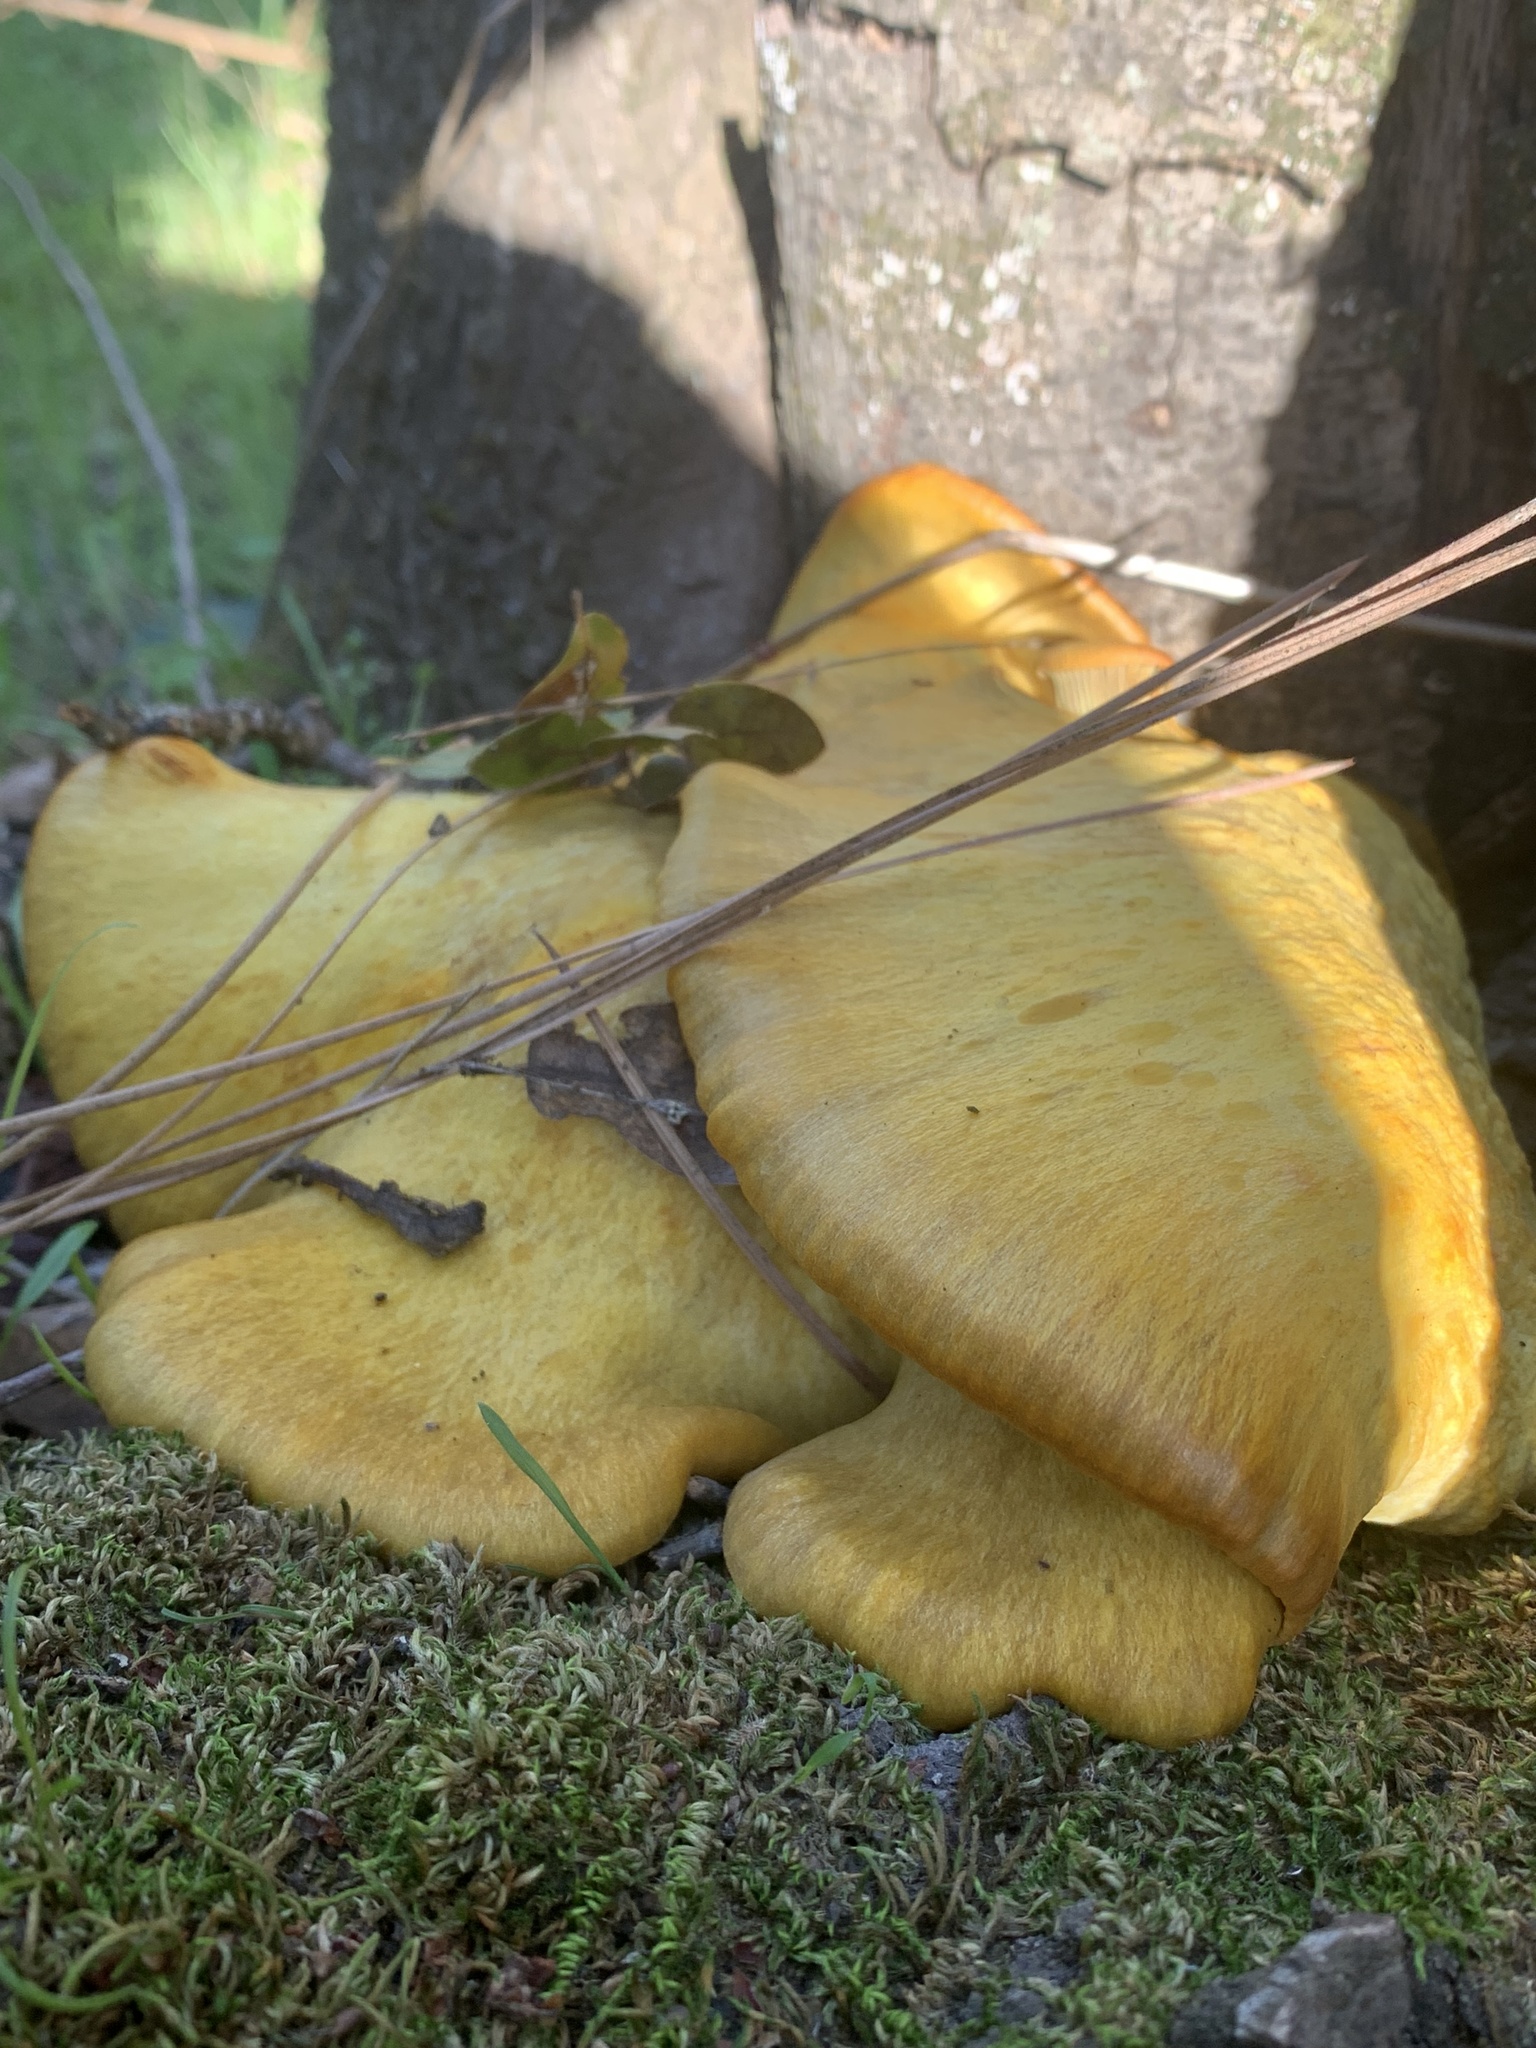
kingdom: Fungi
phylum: Basidiomycota
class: Agaricomycetes
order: Agaricales
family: Omphalotaceae
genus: Omphalotus
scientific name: Omphalotus olivascens
